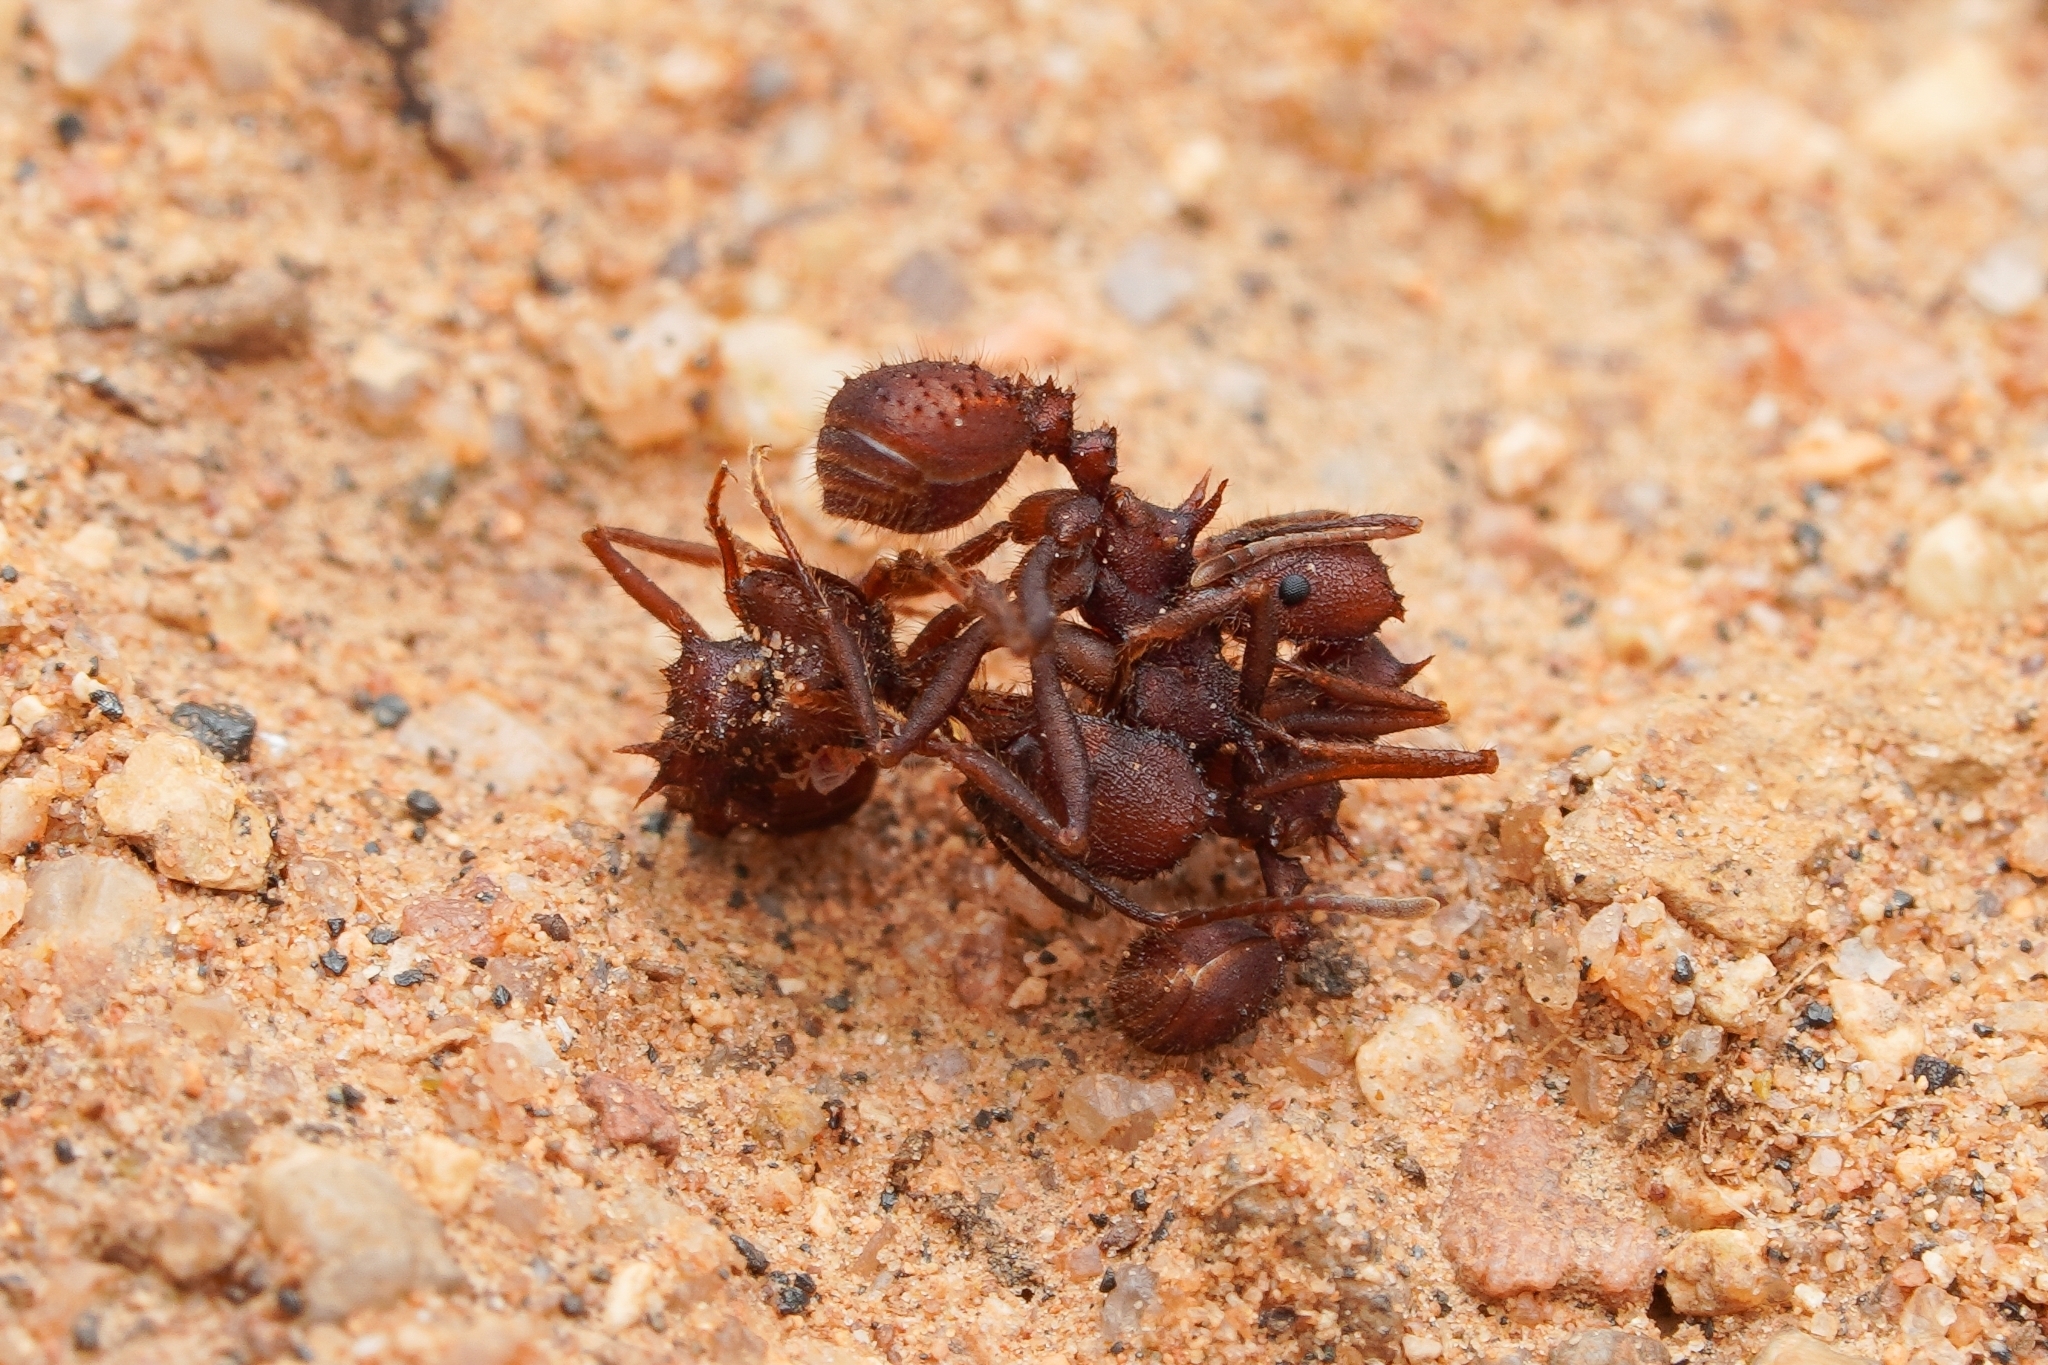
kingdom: Animalia
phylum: Arthropoda
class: Insecta
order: Hymenoptera
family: Formicidae
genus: Acromyrmex
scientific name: Acromyrmex versicolor
